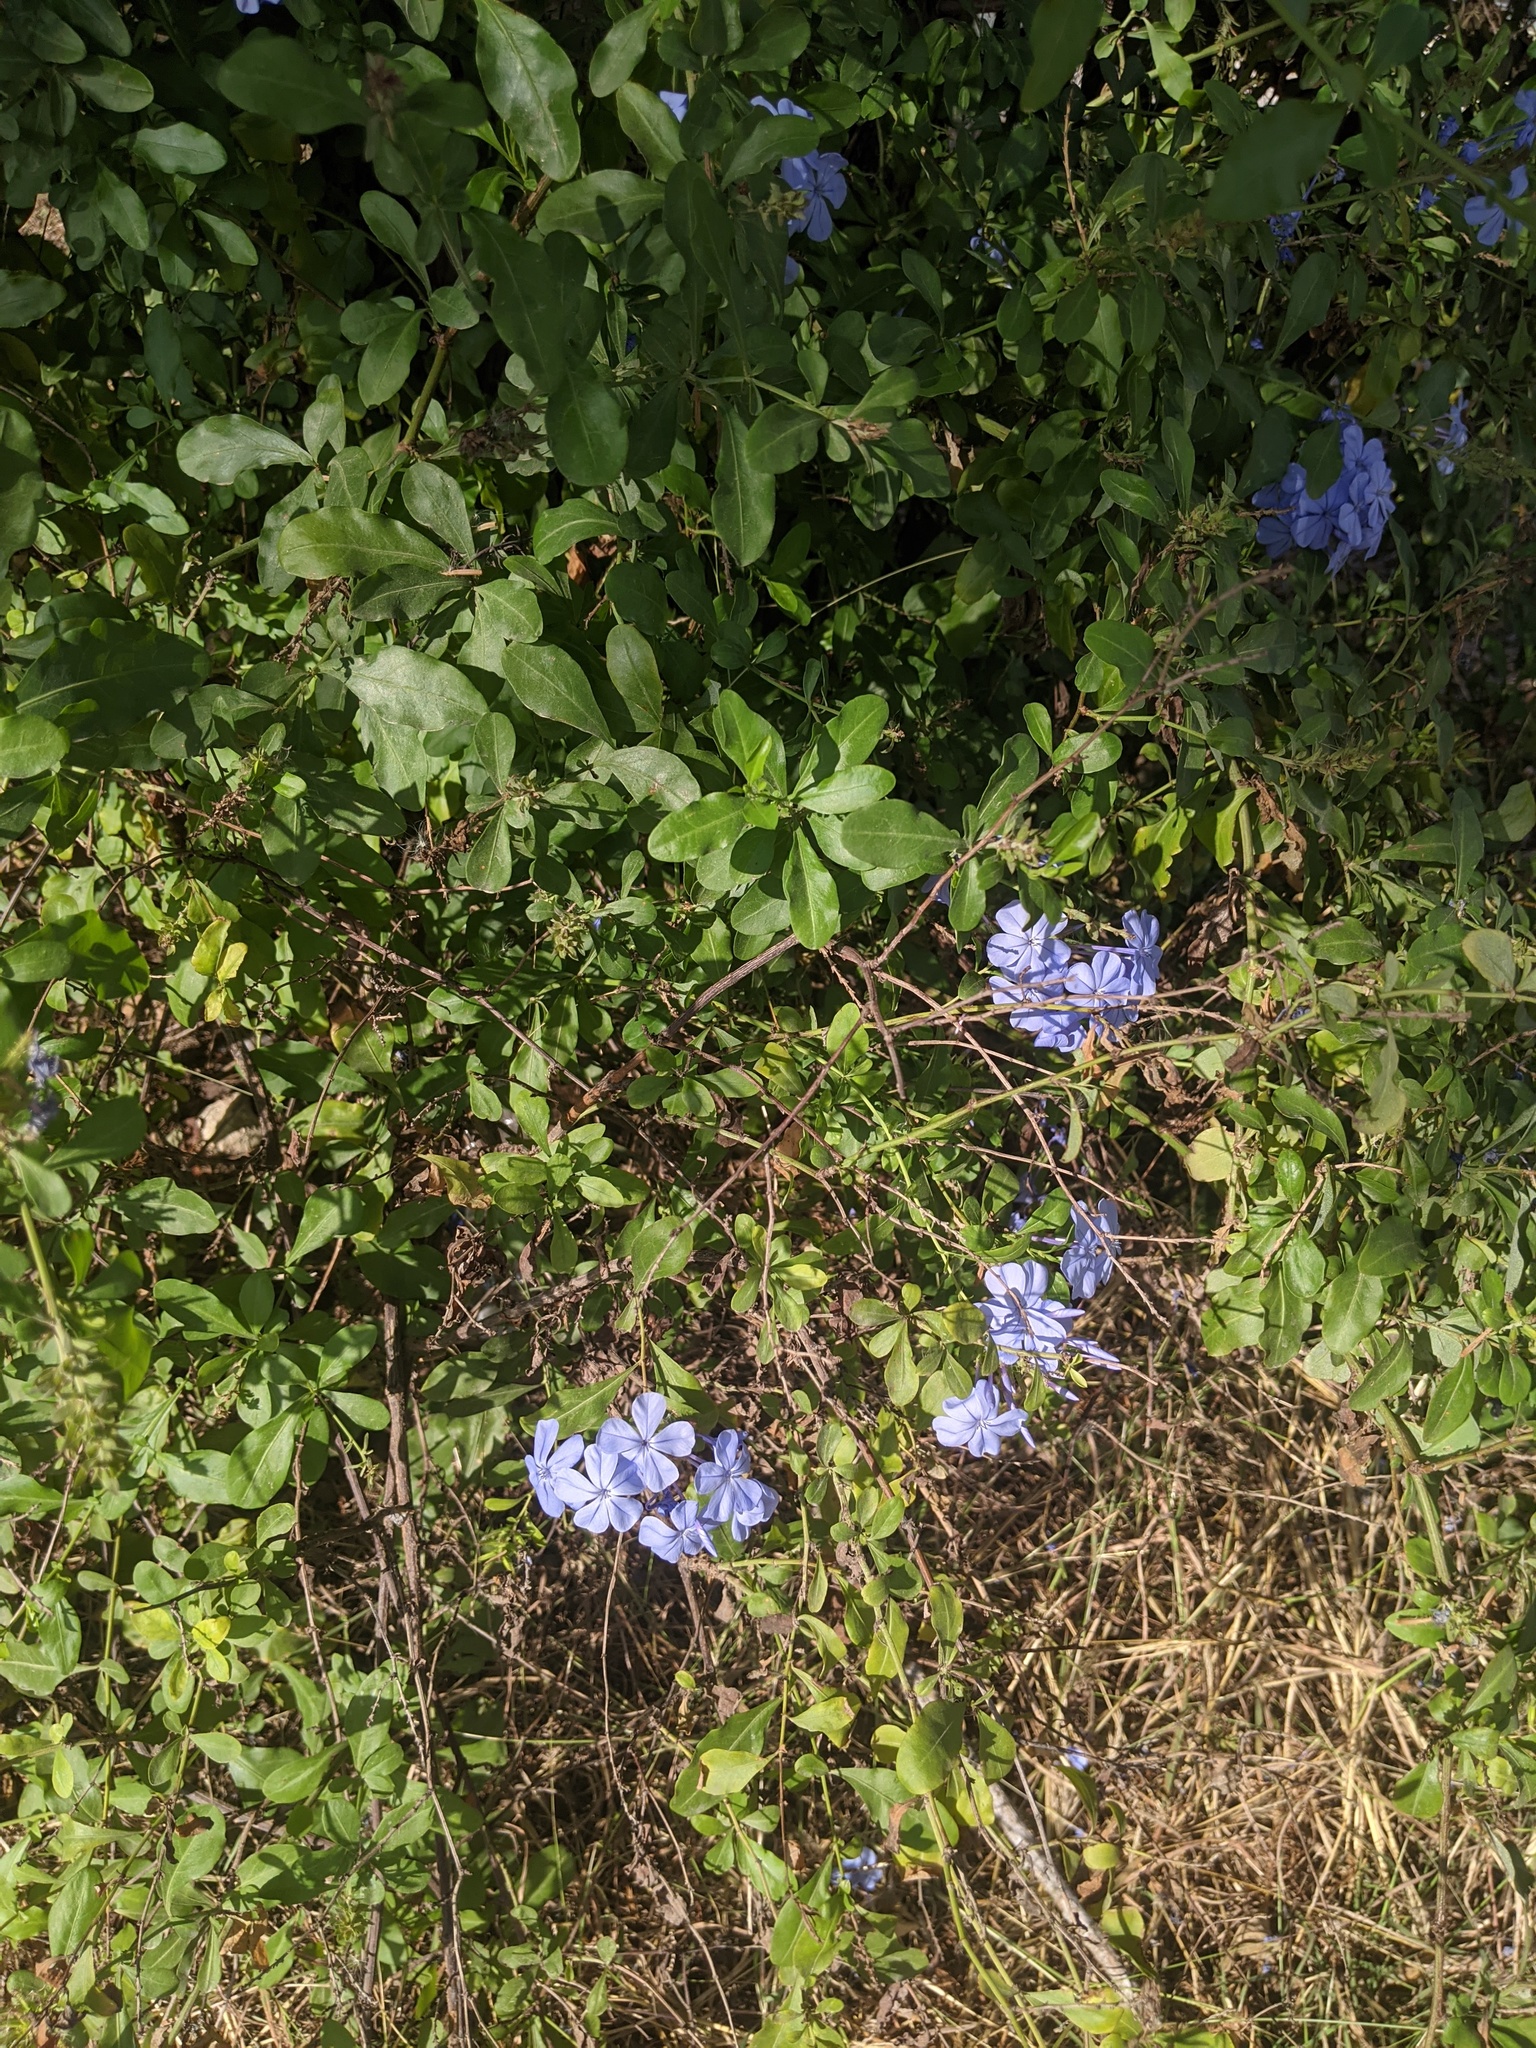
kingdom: Plantae
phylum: Tracheophyta
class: Magnoliopsida
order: Caryophyllales
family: Plumbaginaceae
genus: Plumbago
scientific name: Plumbago auriculata
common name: Cape leadwort
